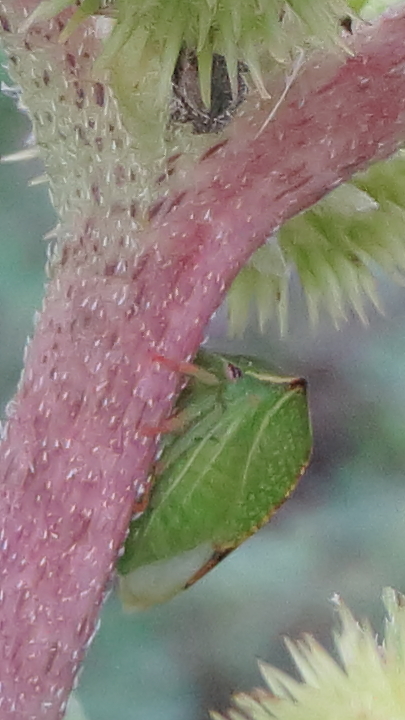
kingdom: Animalia
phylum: Arthropoda
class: Insecta
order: Hemiptera
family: Membracidae
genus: Stictocephala
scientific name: Stictocephala bisonia
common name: American buffalo treehopper
